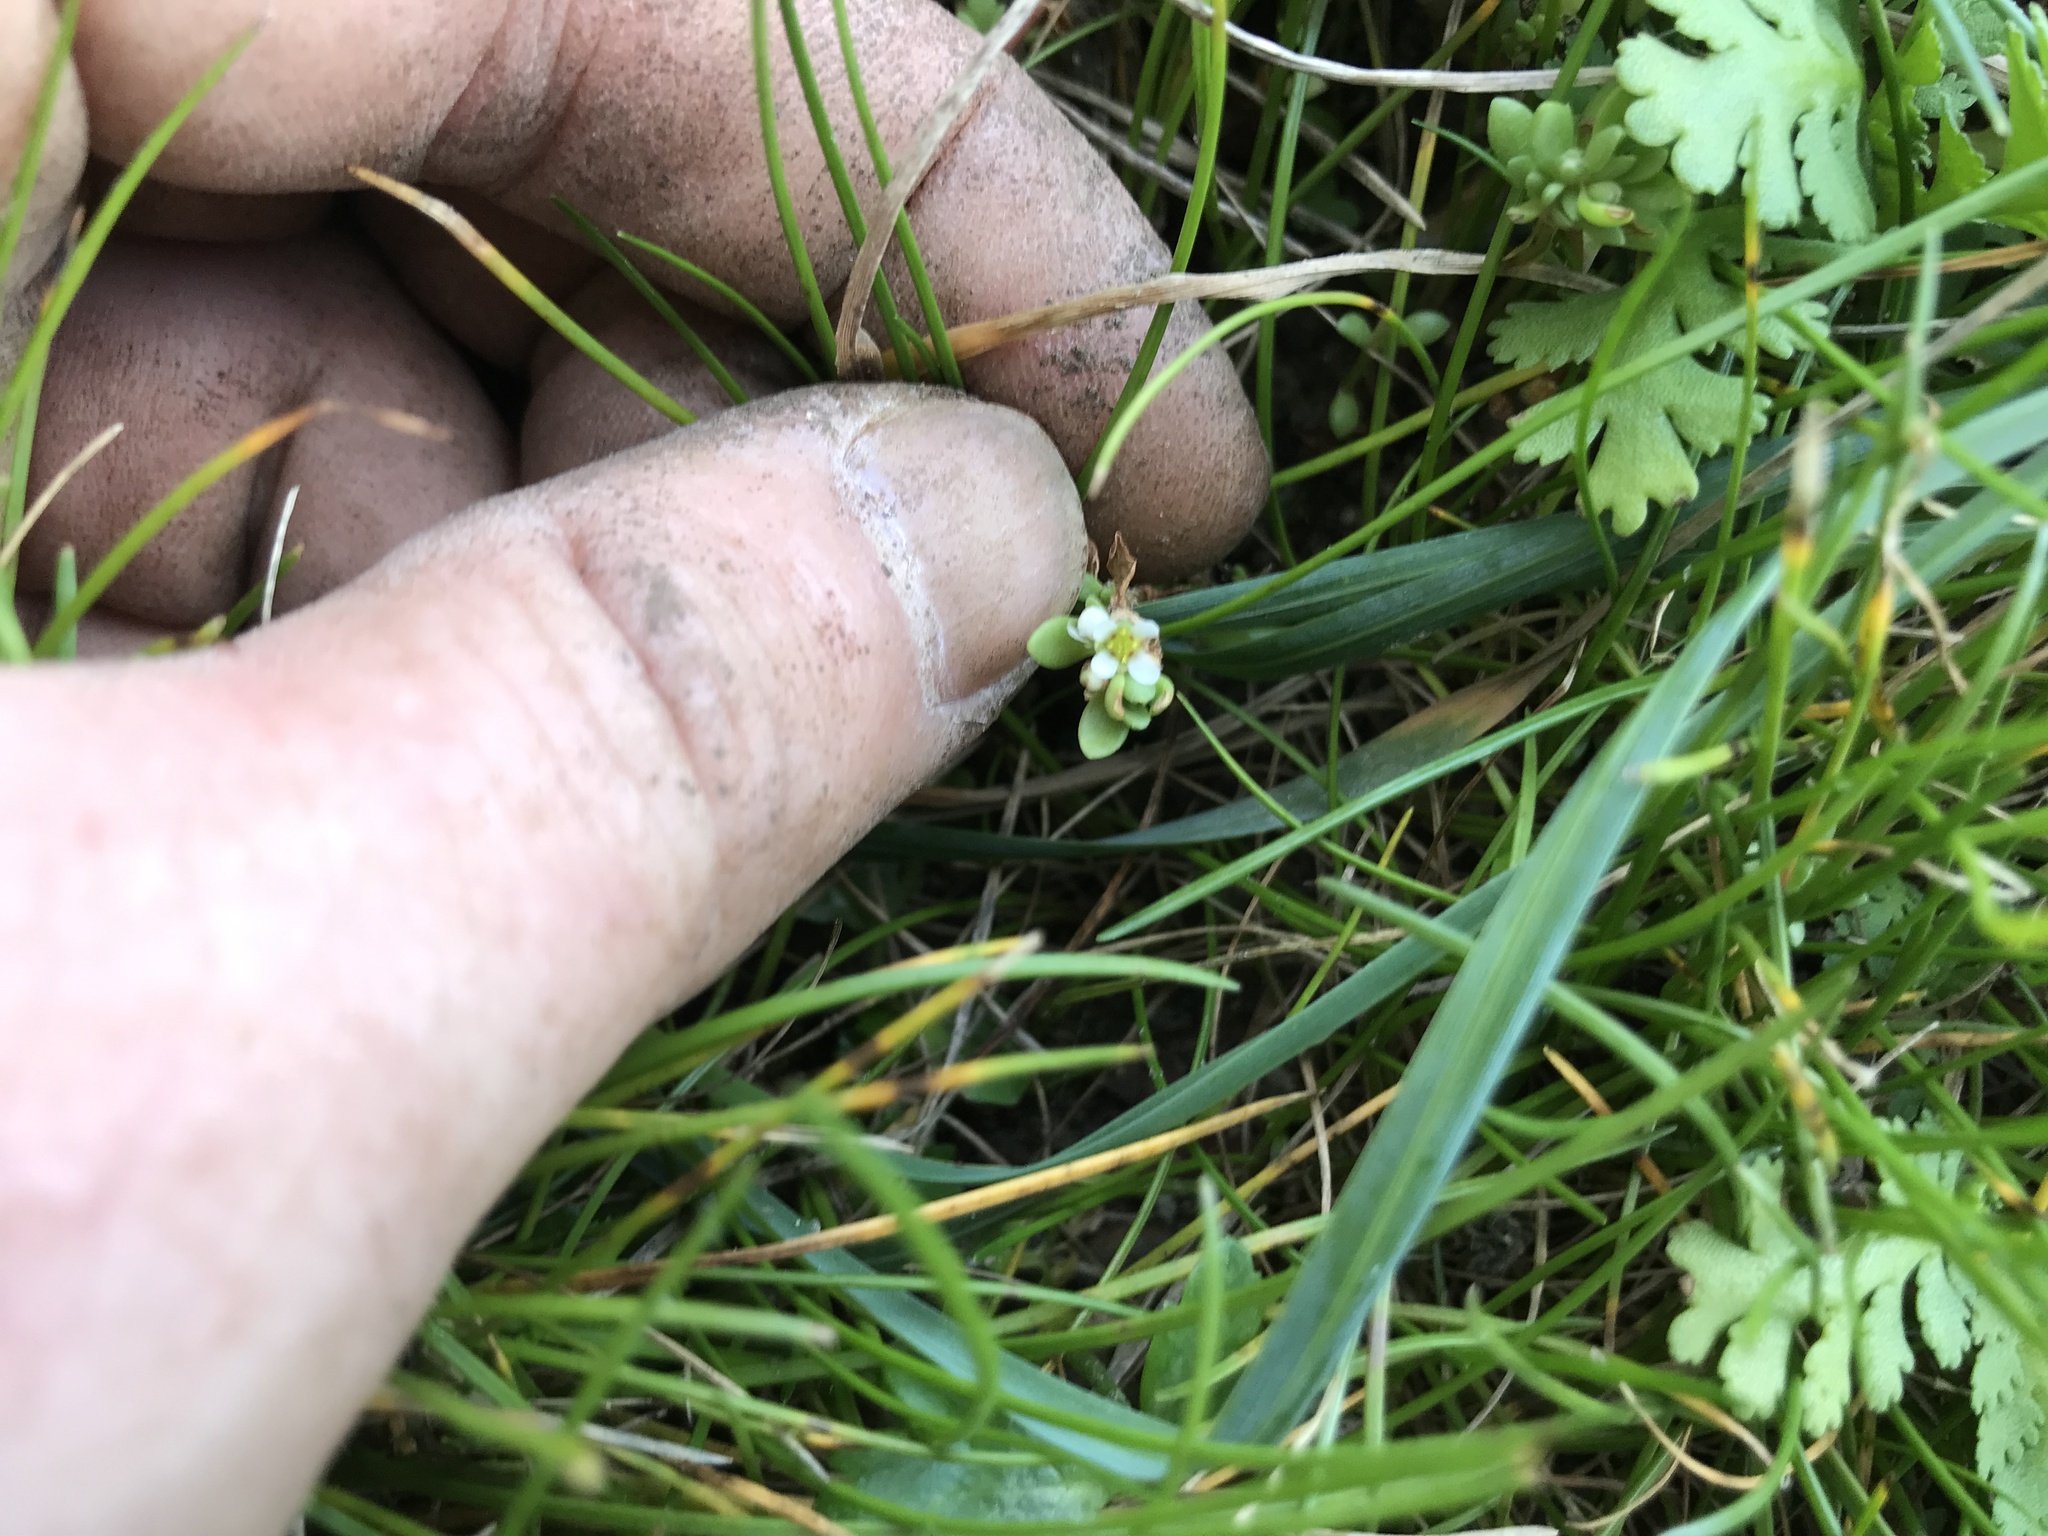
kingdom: Plantae
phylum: Tracheophyta
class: Magnoliopsida
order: Saxifragales
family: Crassulaceae
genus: Crassula
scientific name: Crassula moschata
